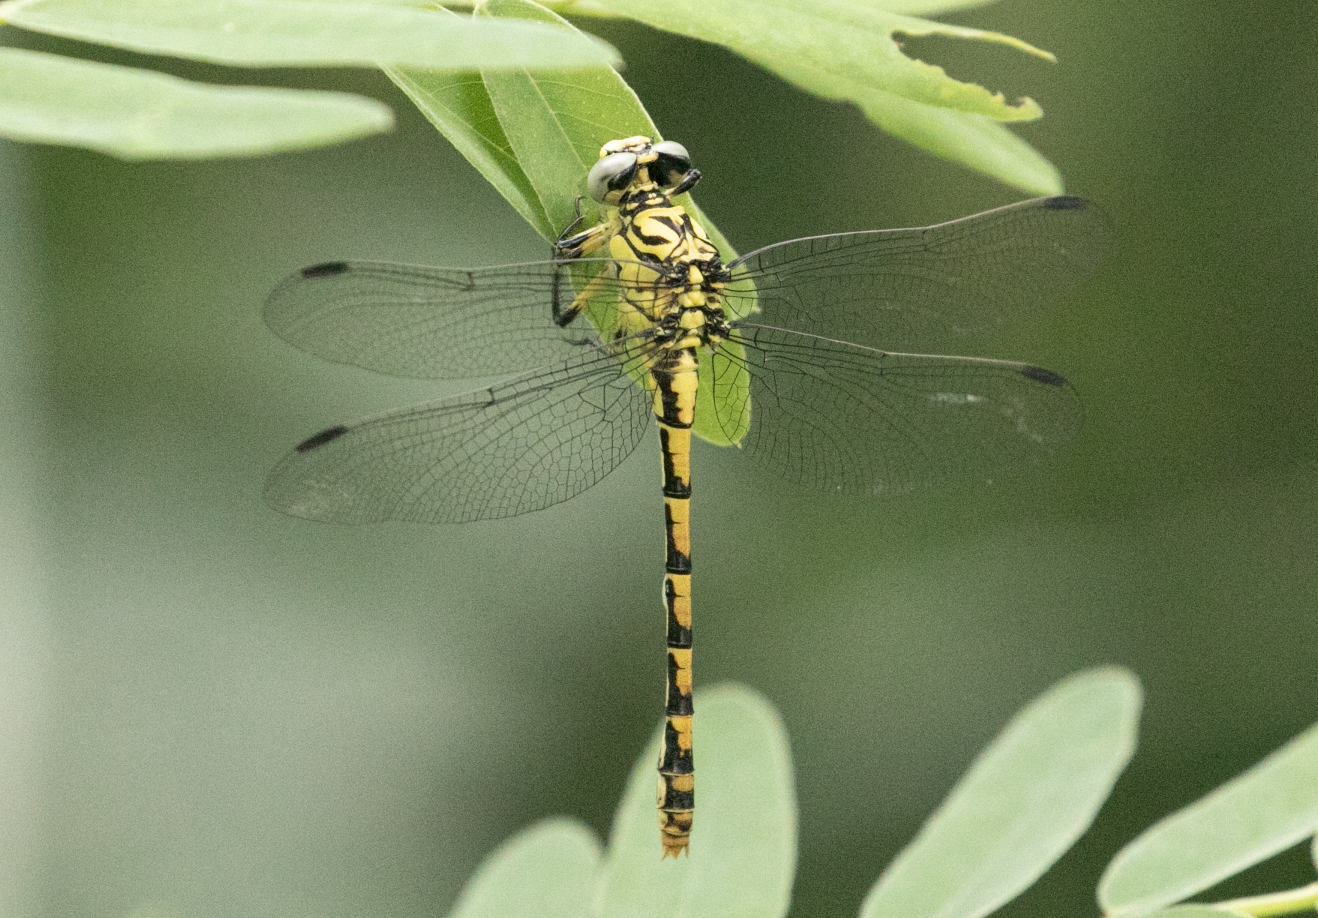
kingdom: Animalia
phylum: Arthropoda
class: Insecta
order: Odonata
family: Gomphidae
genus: Onychogomphus
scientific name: Onychogomphus forcipatus
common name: Small pincertail
